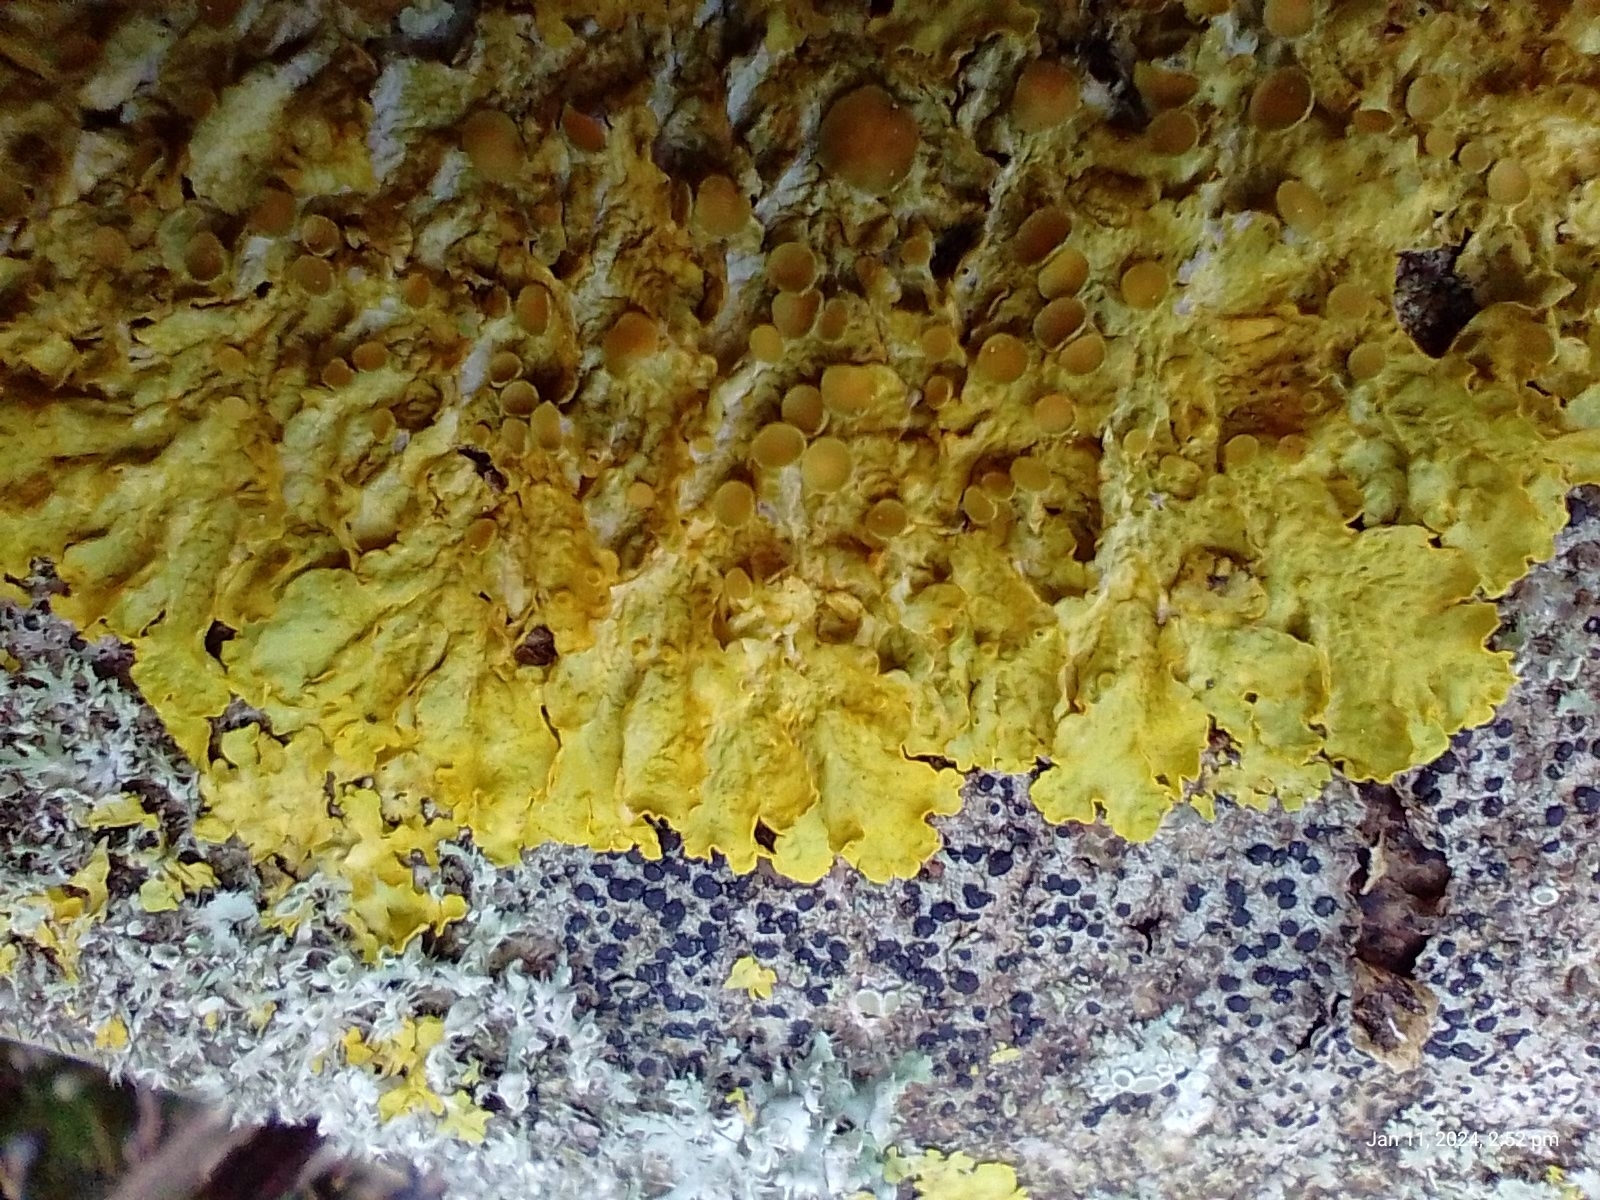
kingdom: Fungi
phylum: Ascomycota
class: Lecanoromycetes
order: Teloschistales
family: Teloschistaceae
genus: Xanthoria
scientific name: Xanthoria parietina
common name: Common orange lichen
